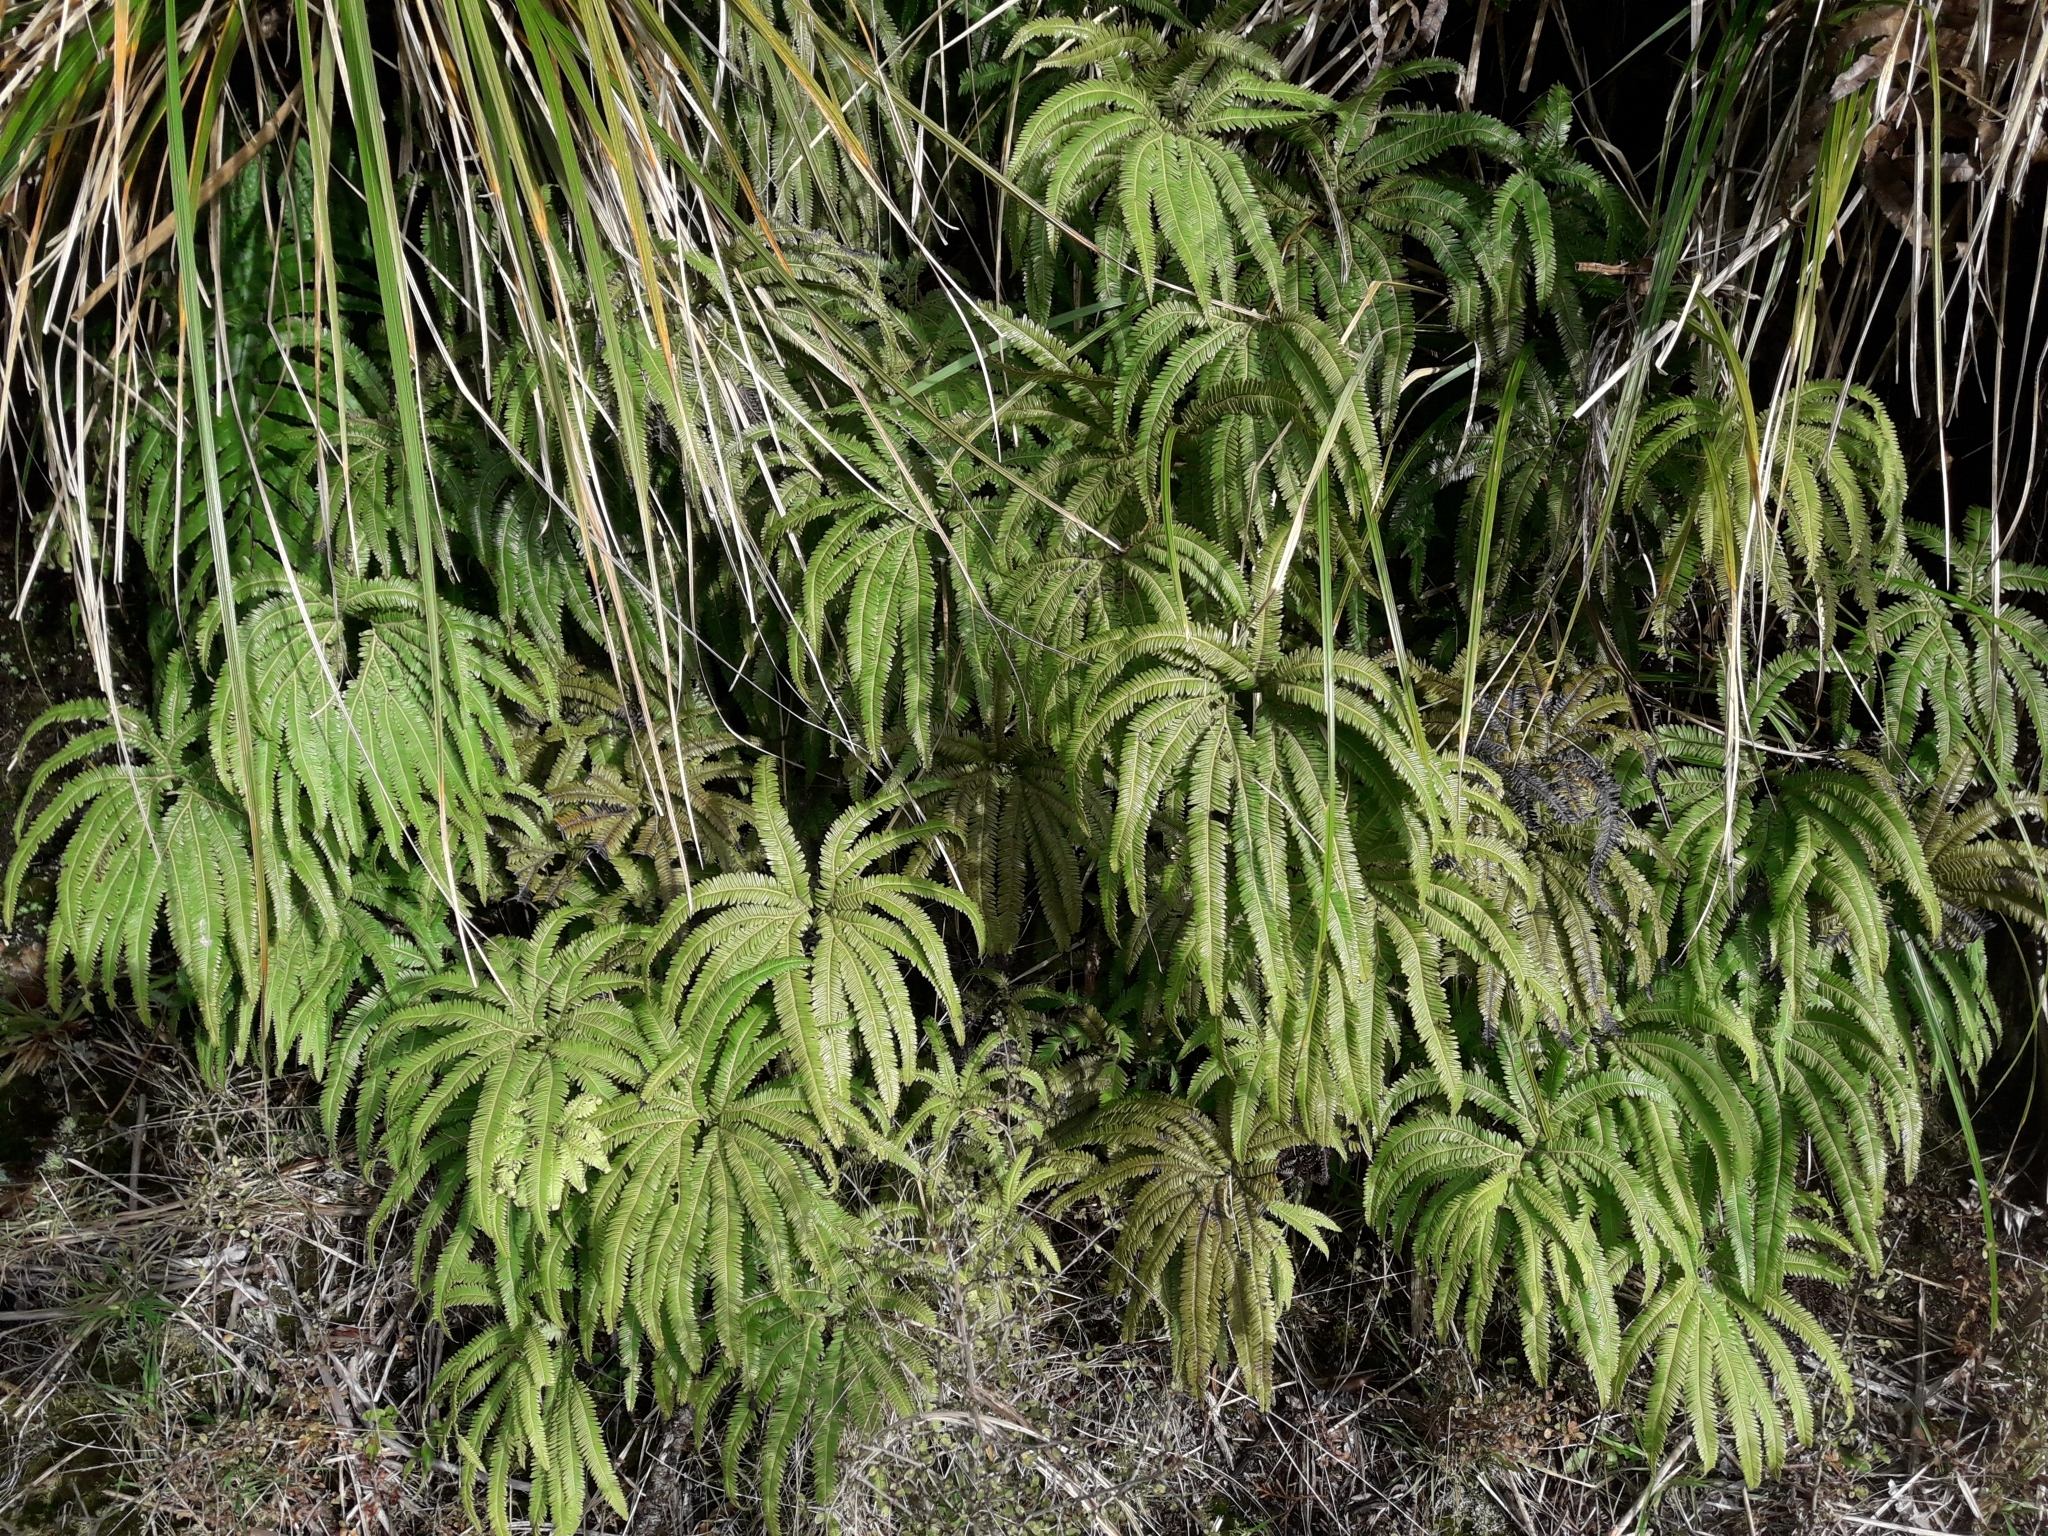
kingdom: Plantae
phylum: Tracheophyta
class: Polypodiopsida
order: Gleicheniales
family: Gleicheniaceae
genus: Sticherus
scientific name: Sticherus cunninghamii
